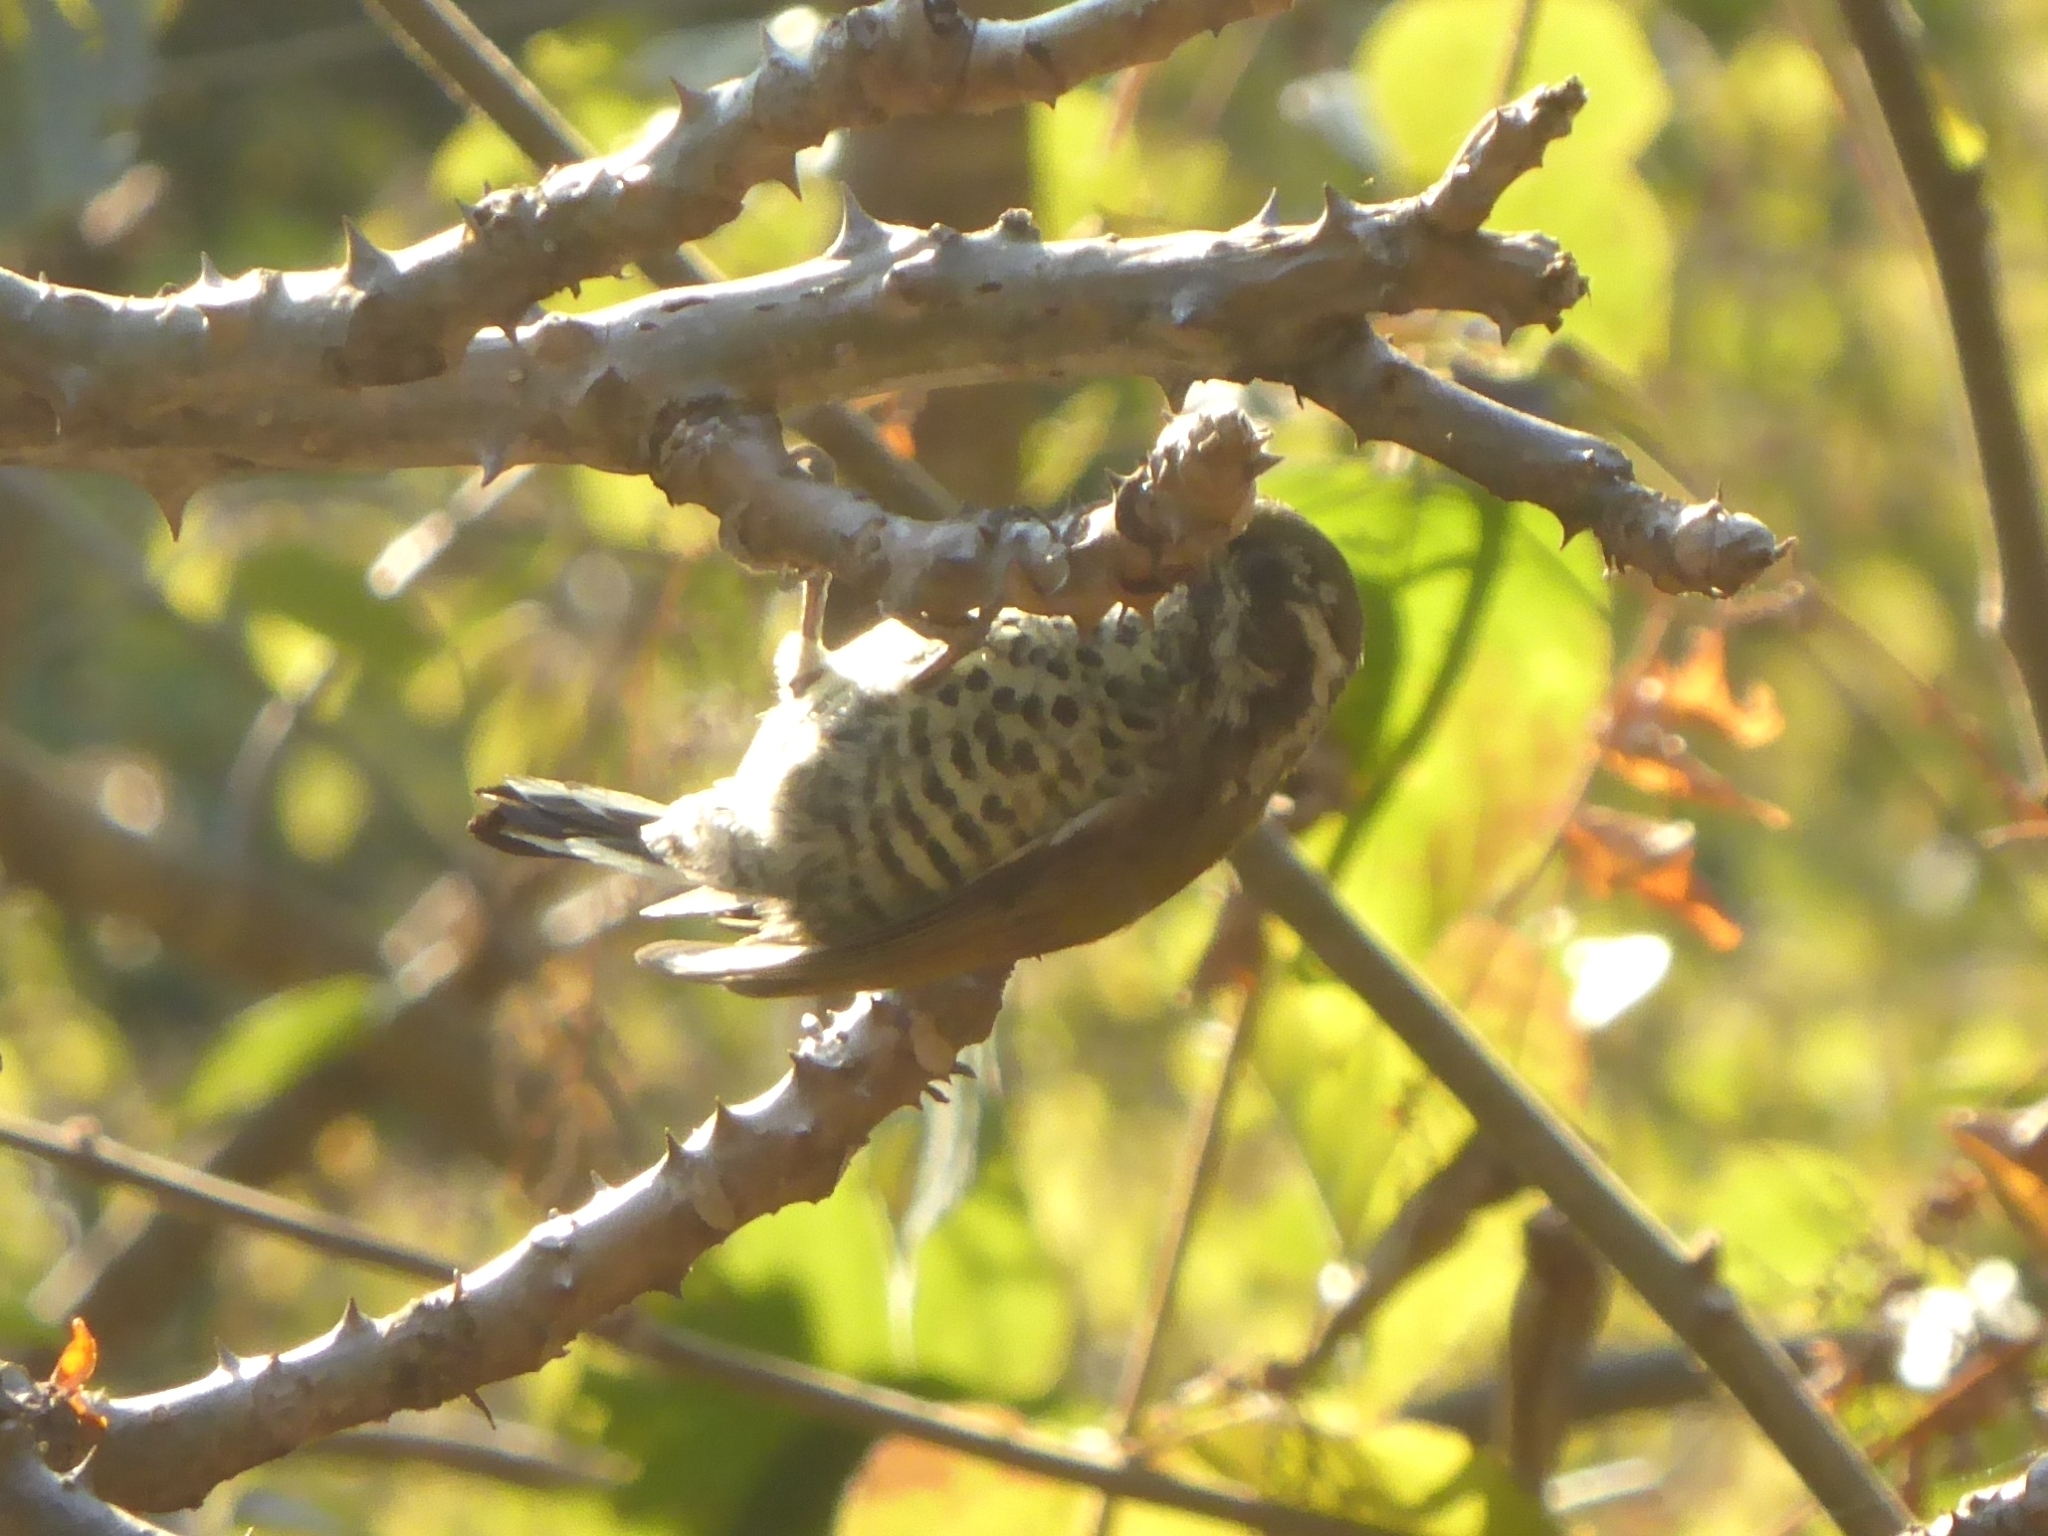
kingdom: Animalia
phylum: Chordata
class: Aves
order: Piciformes
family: Picidae
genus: Picumnus
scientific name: Picumnus innominatus
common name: Speckled piculet
